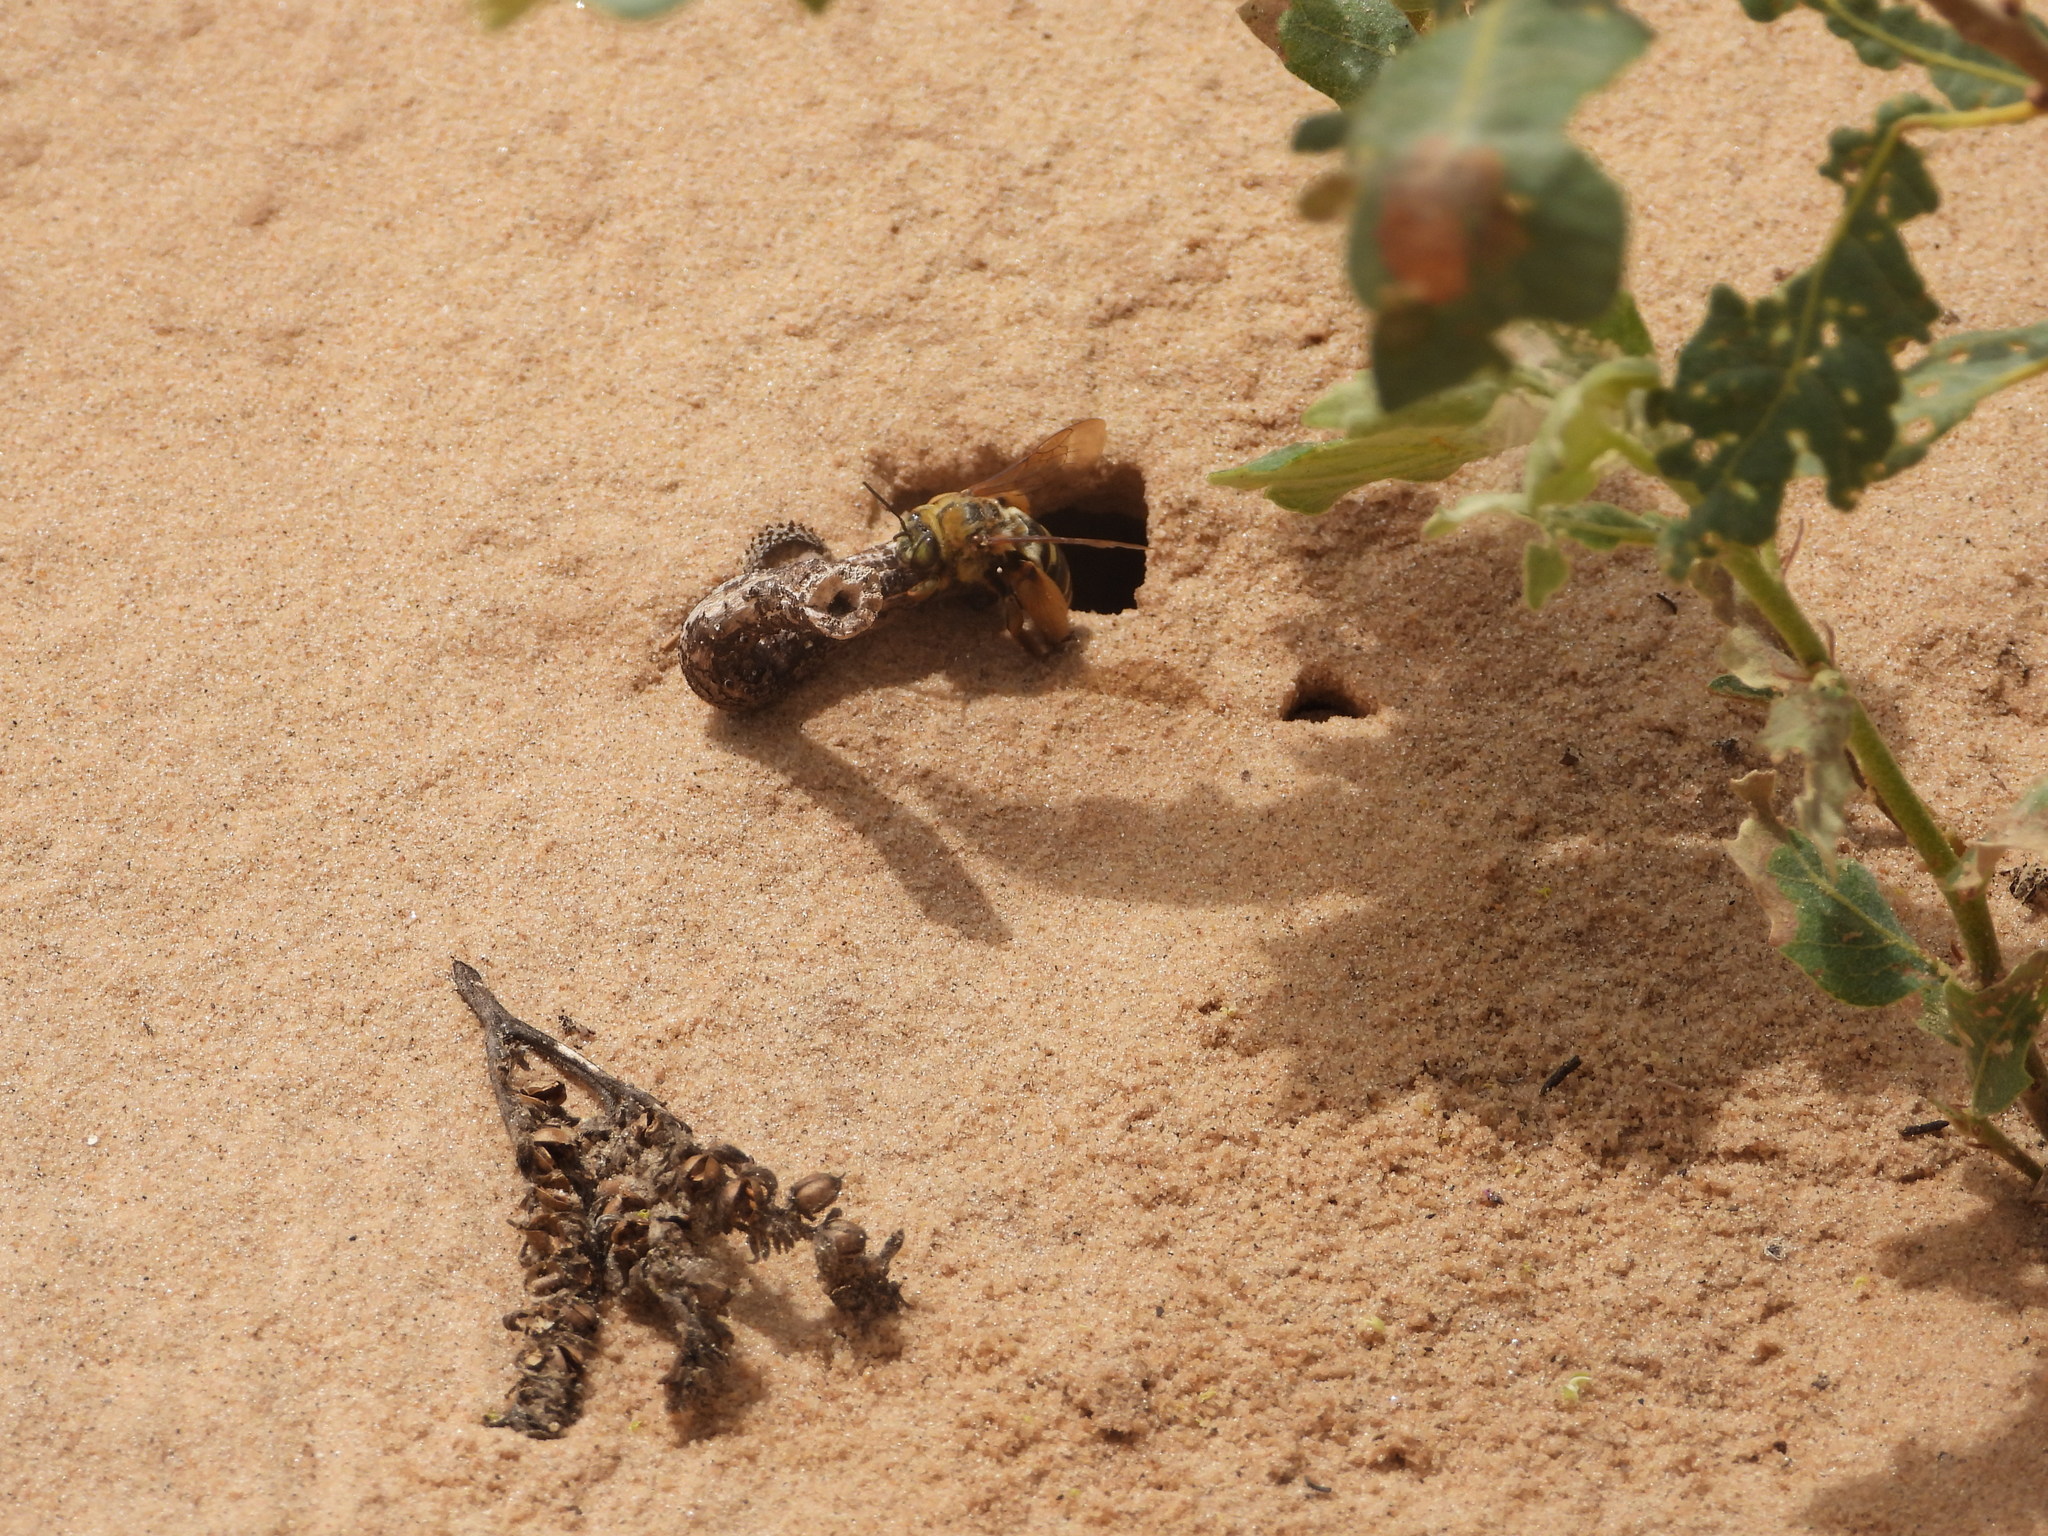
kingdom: Animalia
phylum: Arthropoda
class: Insecta
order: Hymenoptera
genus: Epimelissodes
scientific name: Epimelissodes
